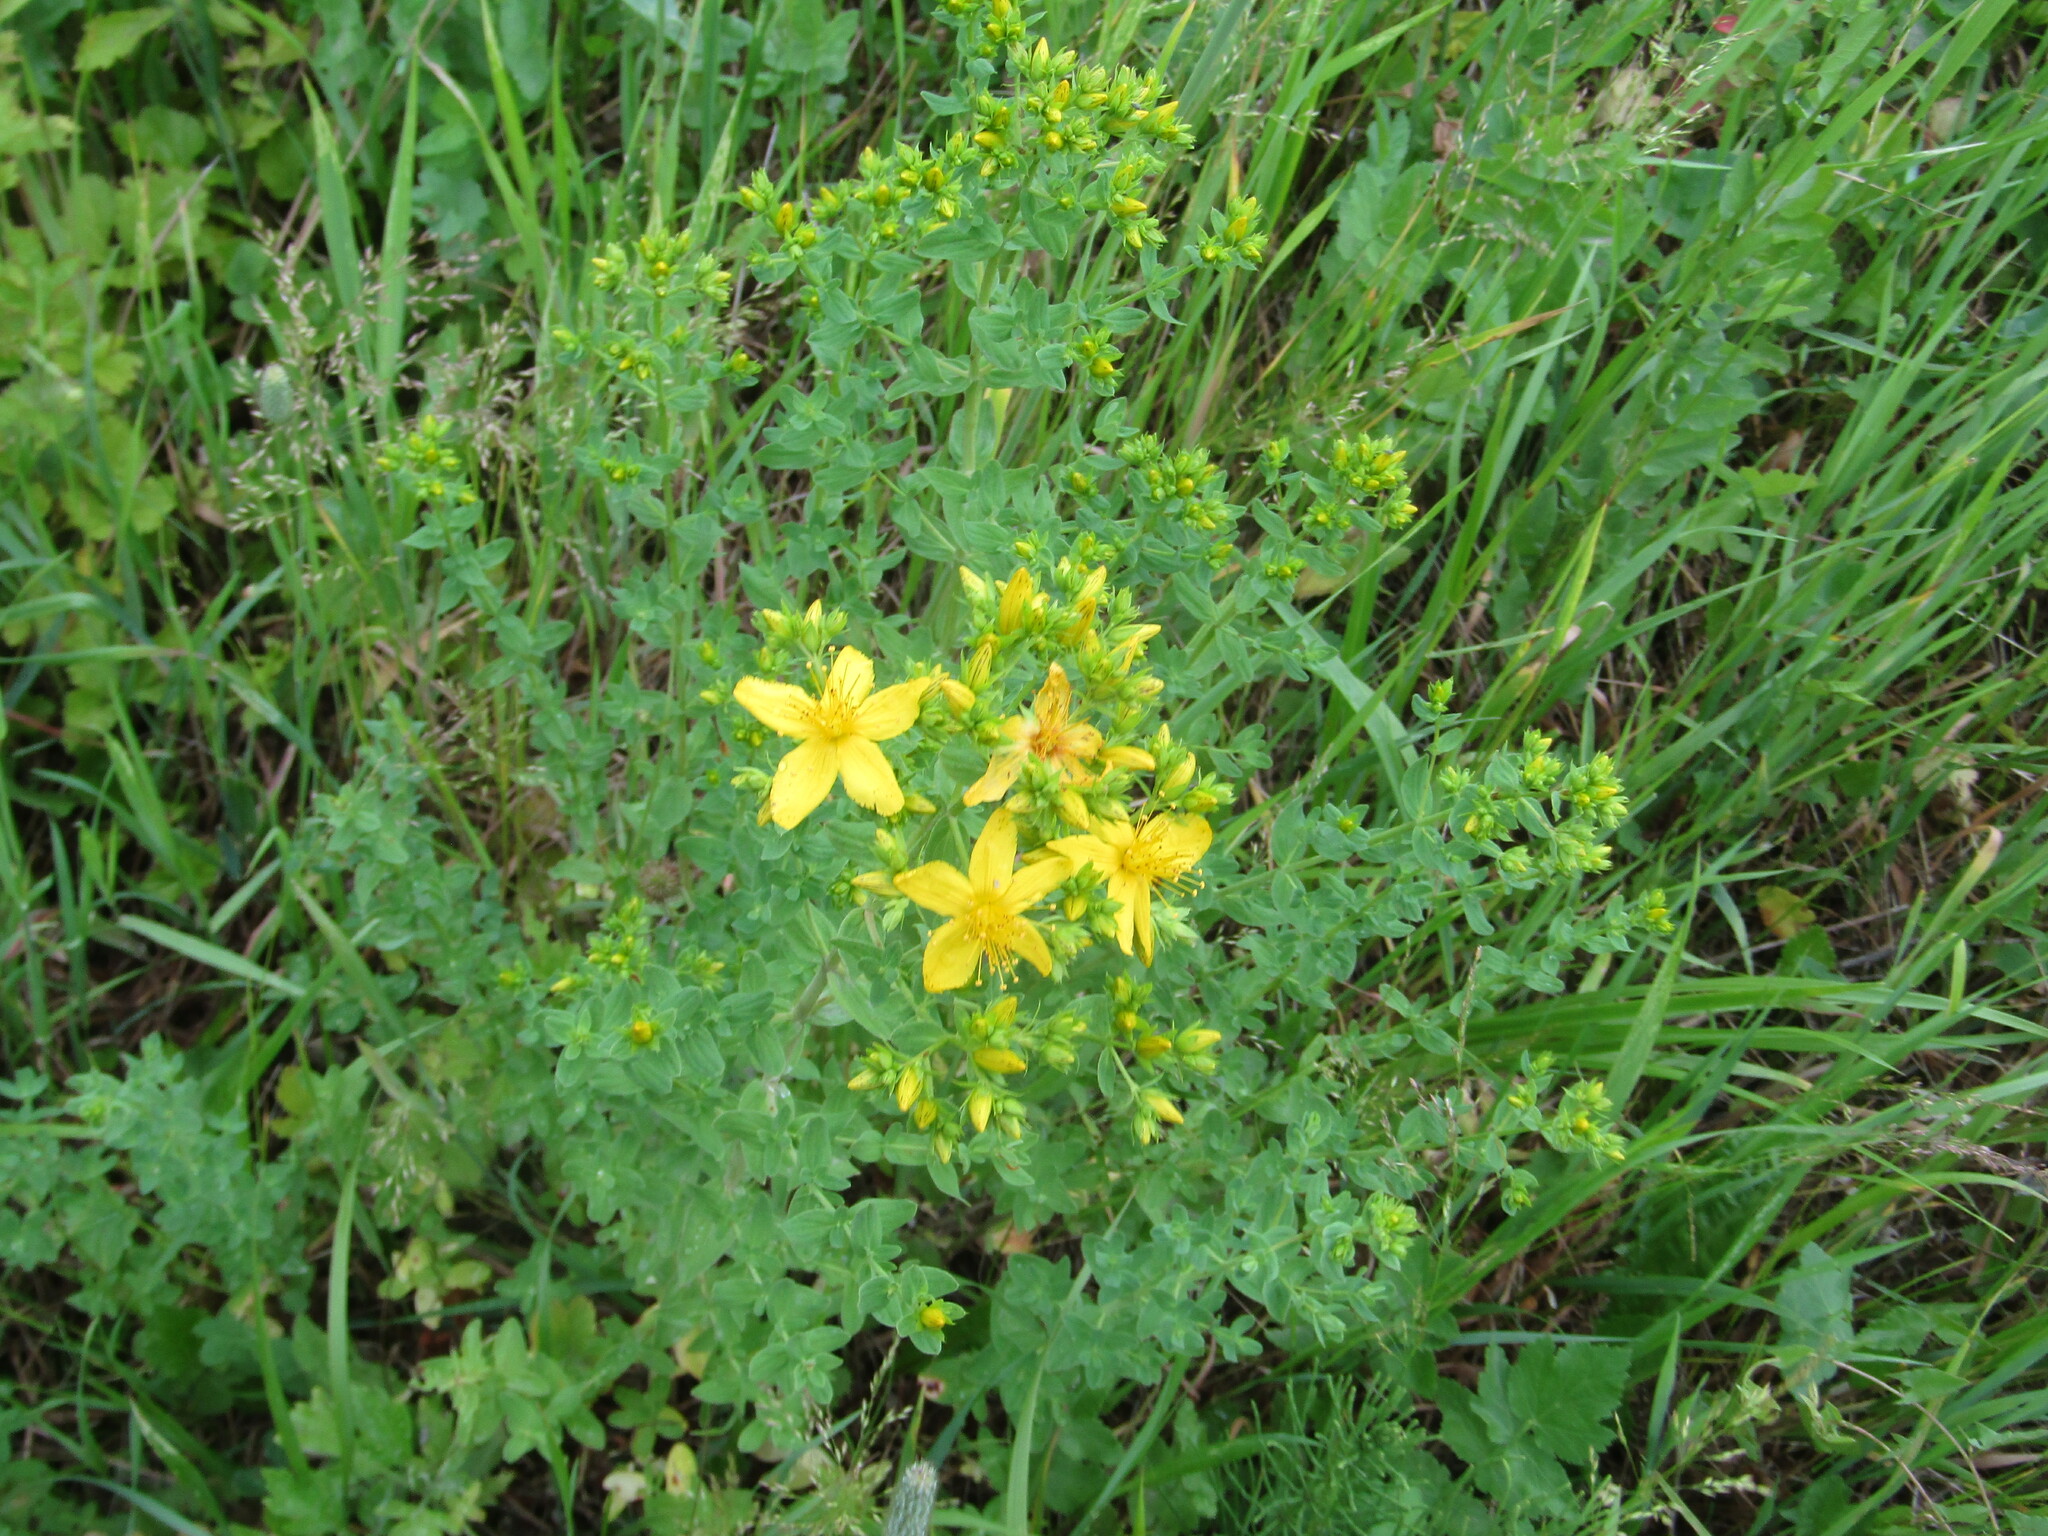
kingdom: Plantae
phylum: Tracheophyta
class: Magnoliopsida
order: Malpighiales
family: Hypericaceae
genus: Hypericum
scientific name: Hypericum perforatum
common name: Common st. johnswort
